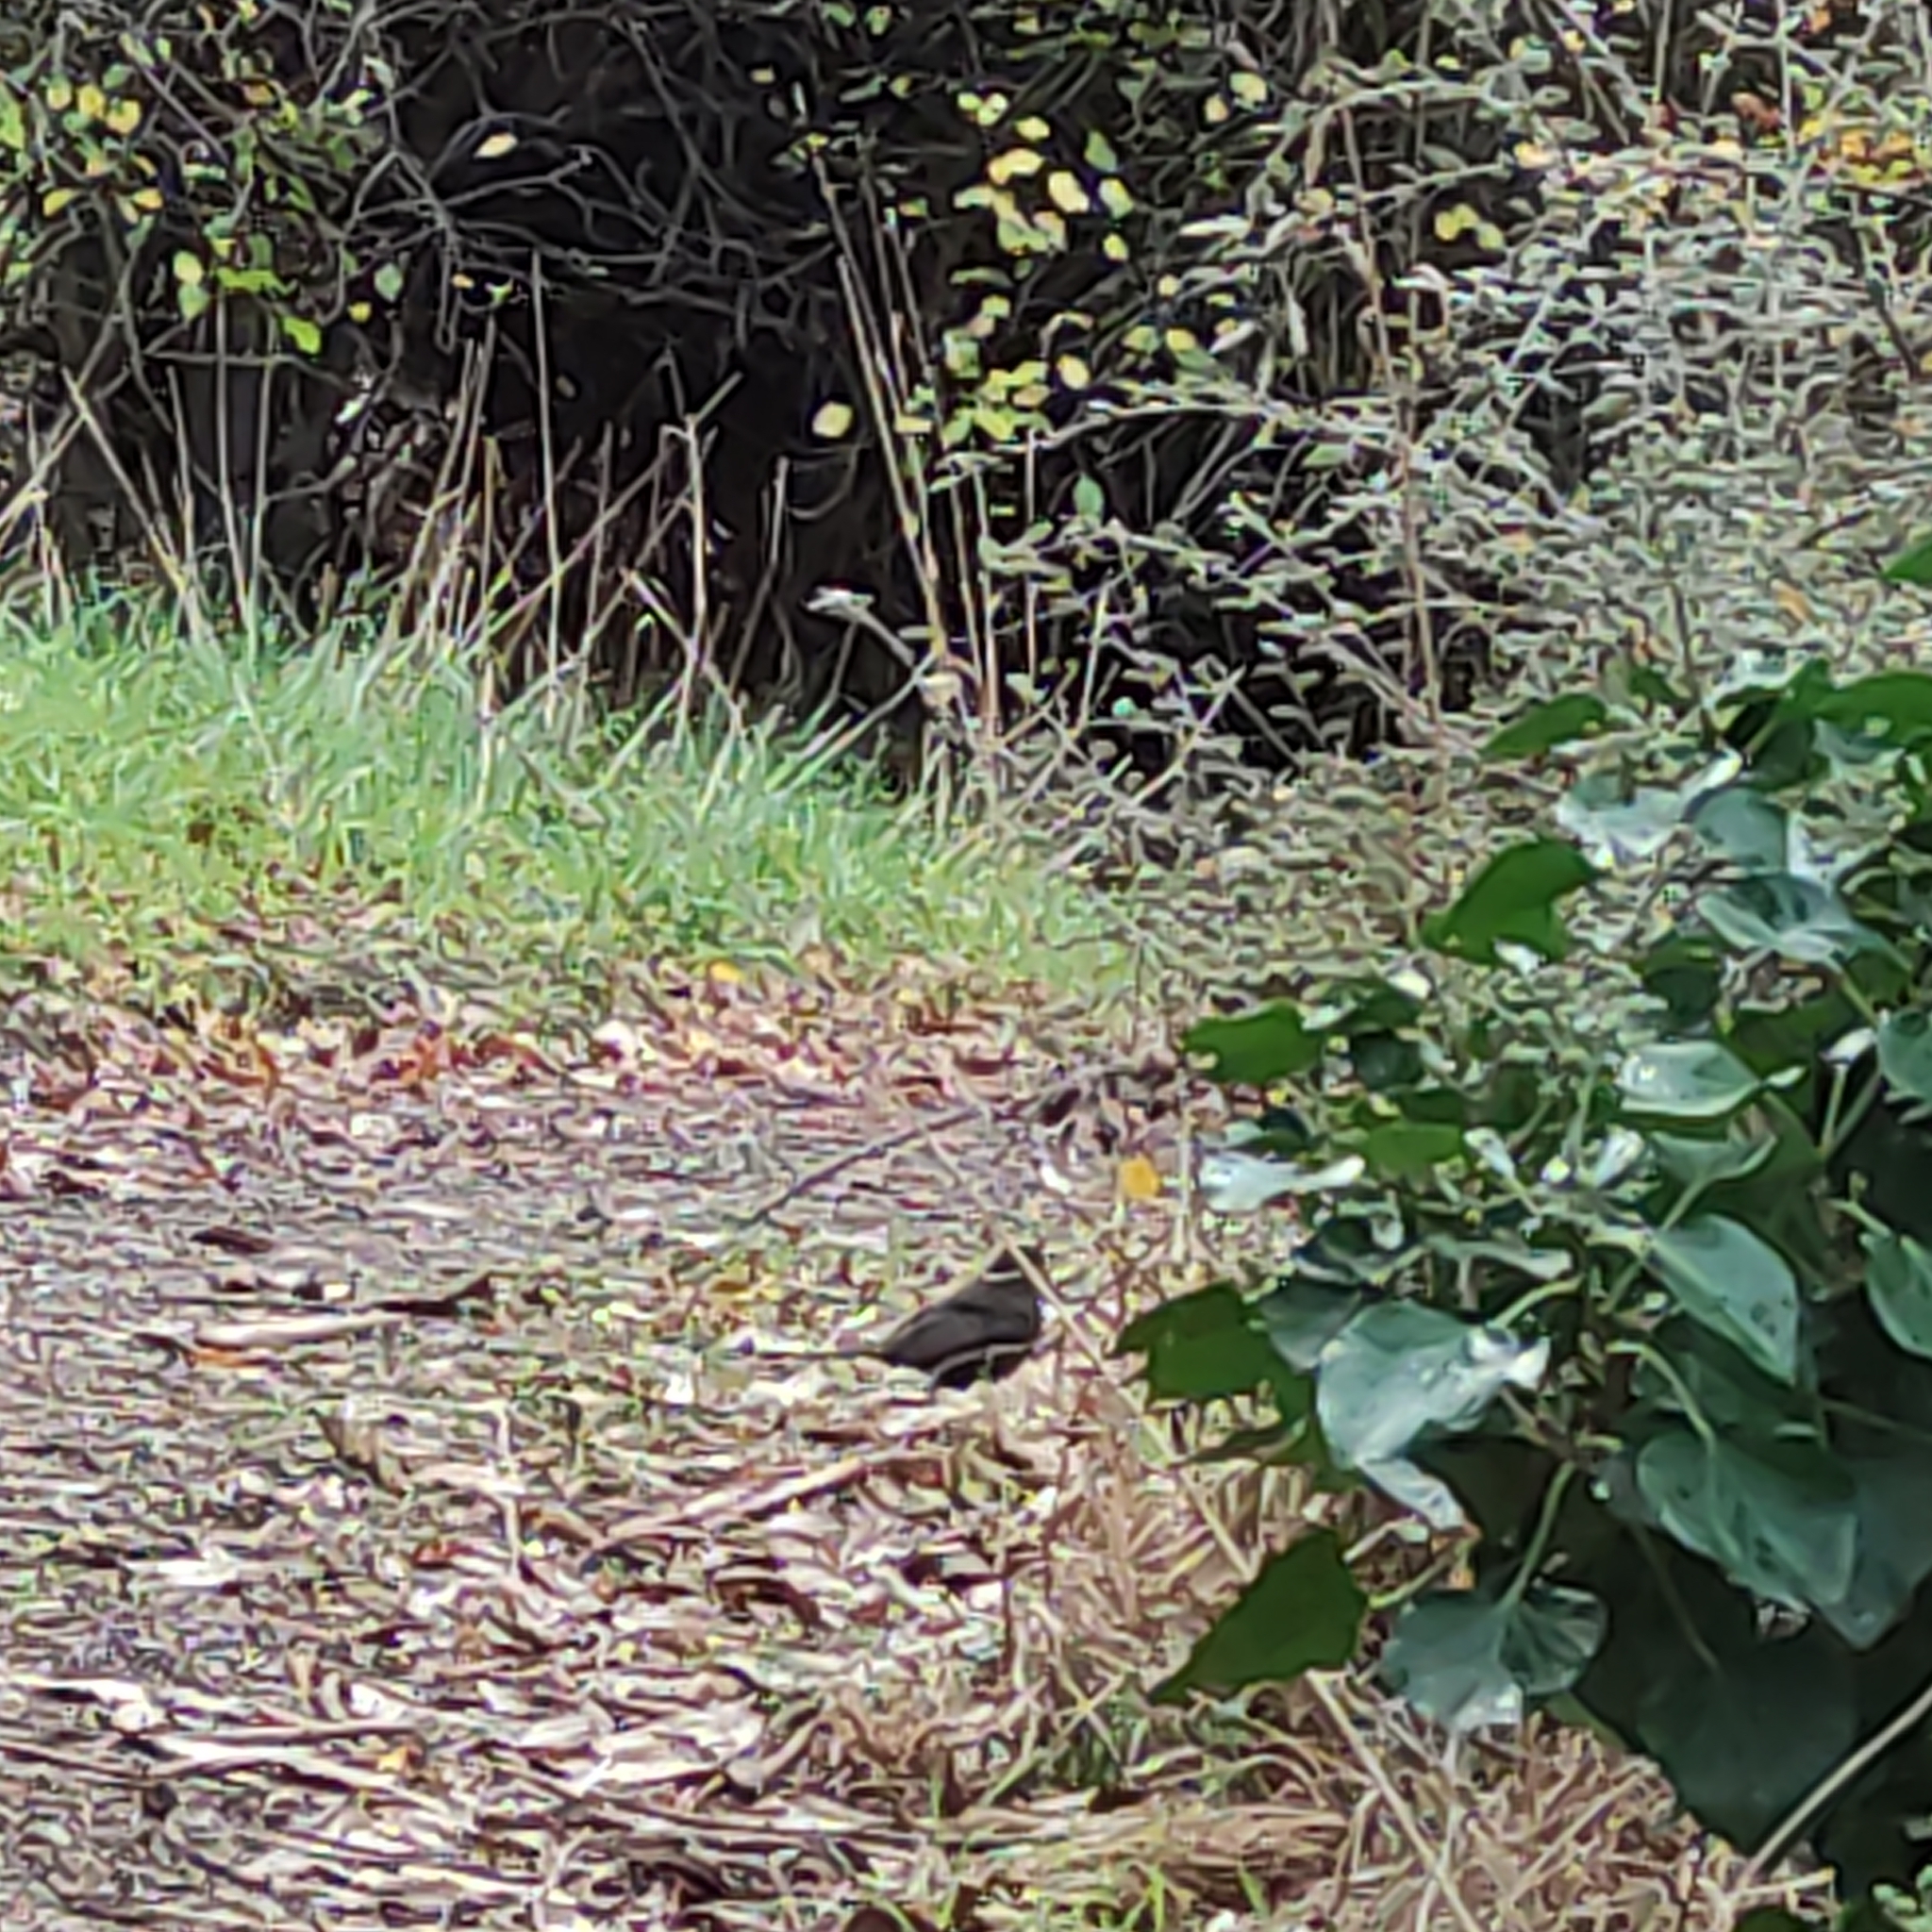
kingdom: Animalia
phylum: Chordata
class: Aves
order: Passeriformes
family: Turdidae
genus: Turdus
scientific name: Turdus merula
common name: Common blackbird
